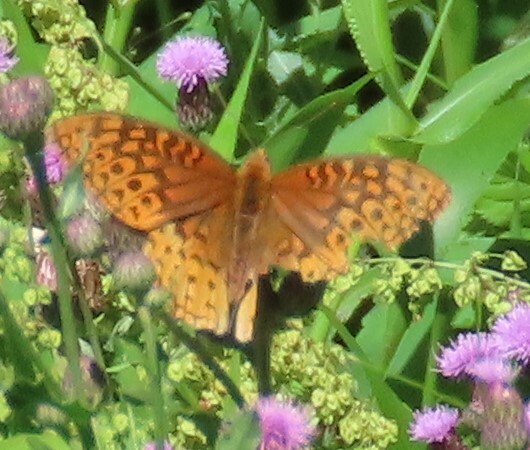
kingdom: Animalia
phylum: Arthropoda
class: Insecta
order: Lepidoptera
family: Nymphalidae
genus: Speyeria
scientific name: Speyeria cybele
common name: Great spangled fritillary
